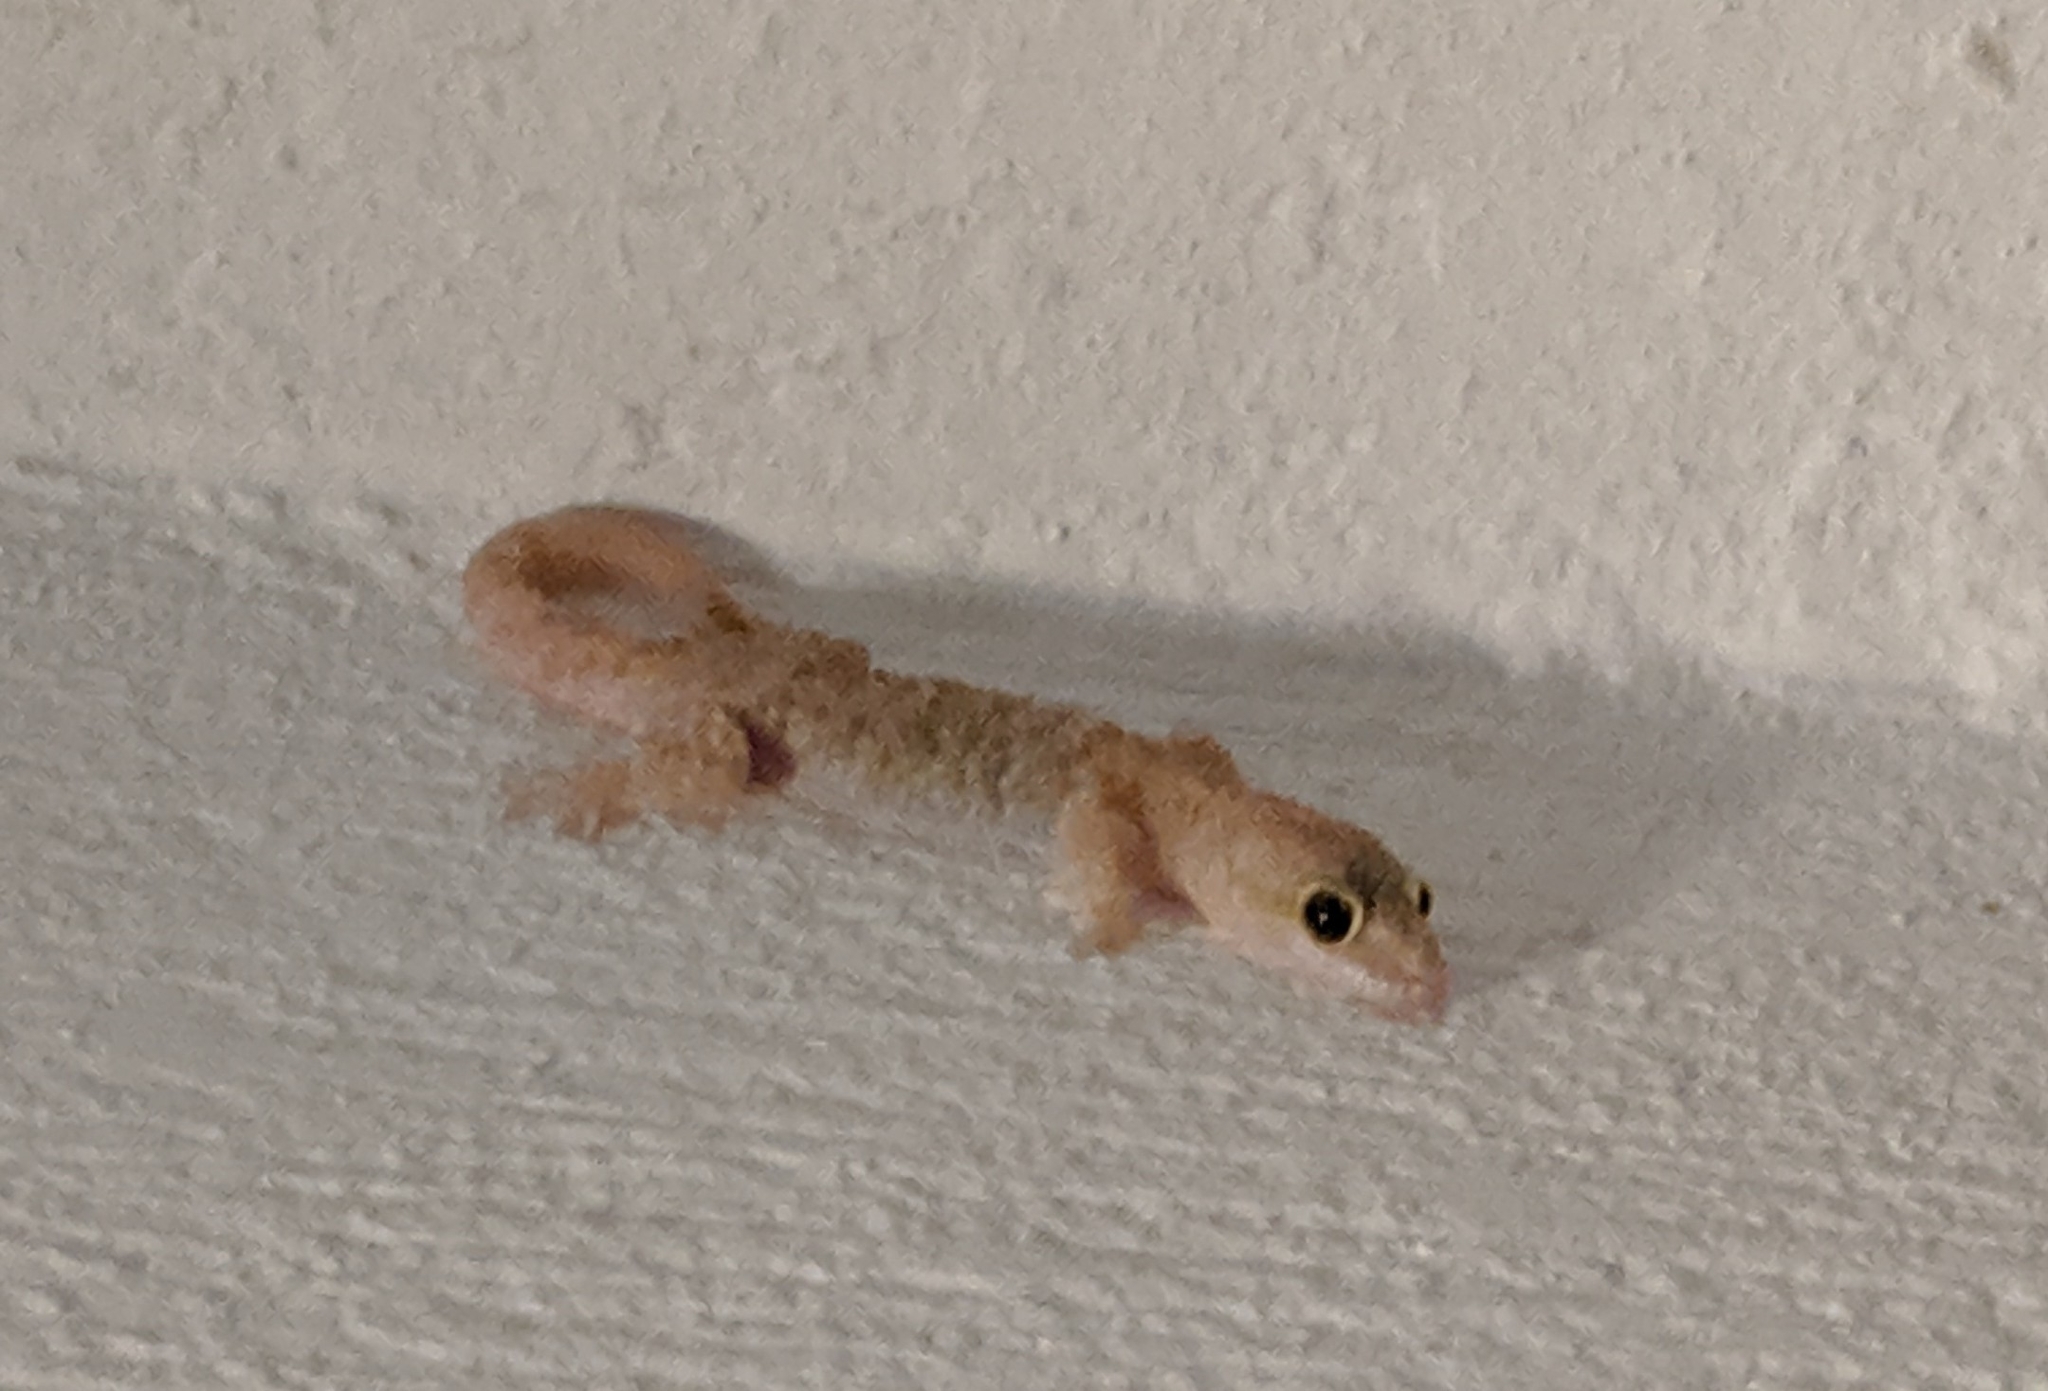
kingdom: Animalia
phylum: Chordata
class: Squamata
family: Gekkonidae
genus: Hemidactylus
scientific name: Hemidactylus turcicus
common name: Turkish gecko
